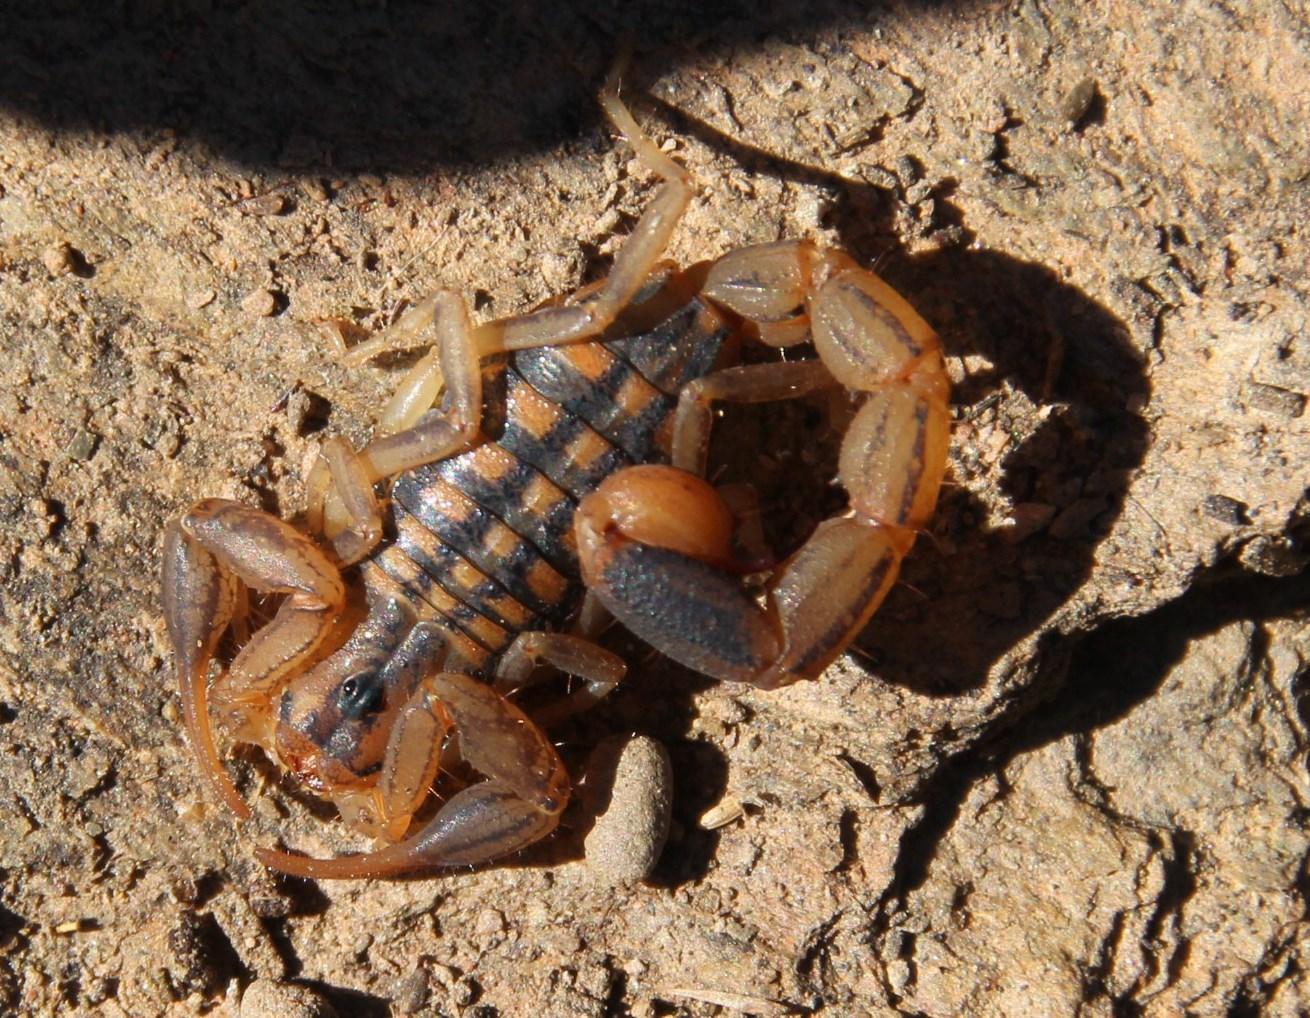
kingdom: Animalia
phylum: Arthropoda
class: Arachnida
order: Scorpiones
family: Buthidae
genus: Uroplectes
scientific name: Uroplectes lineatus
